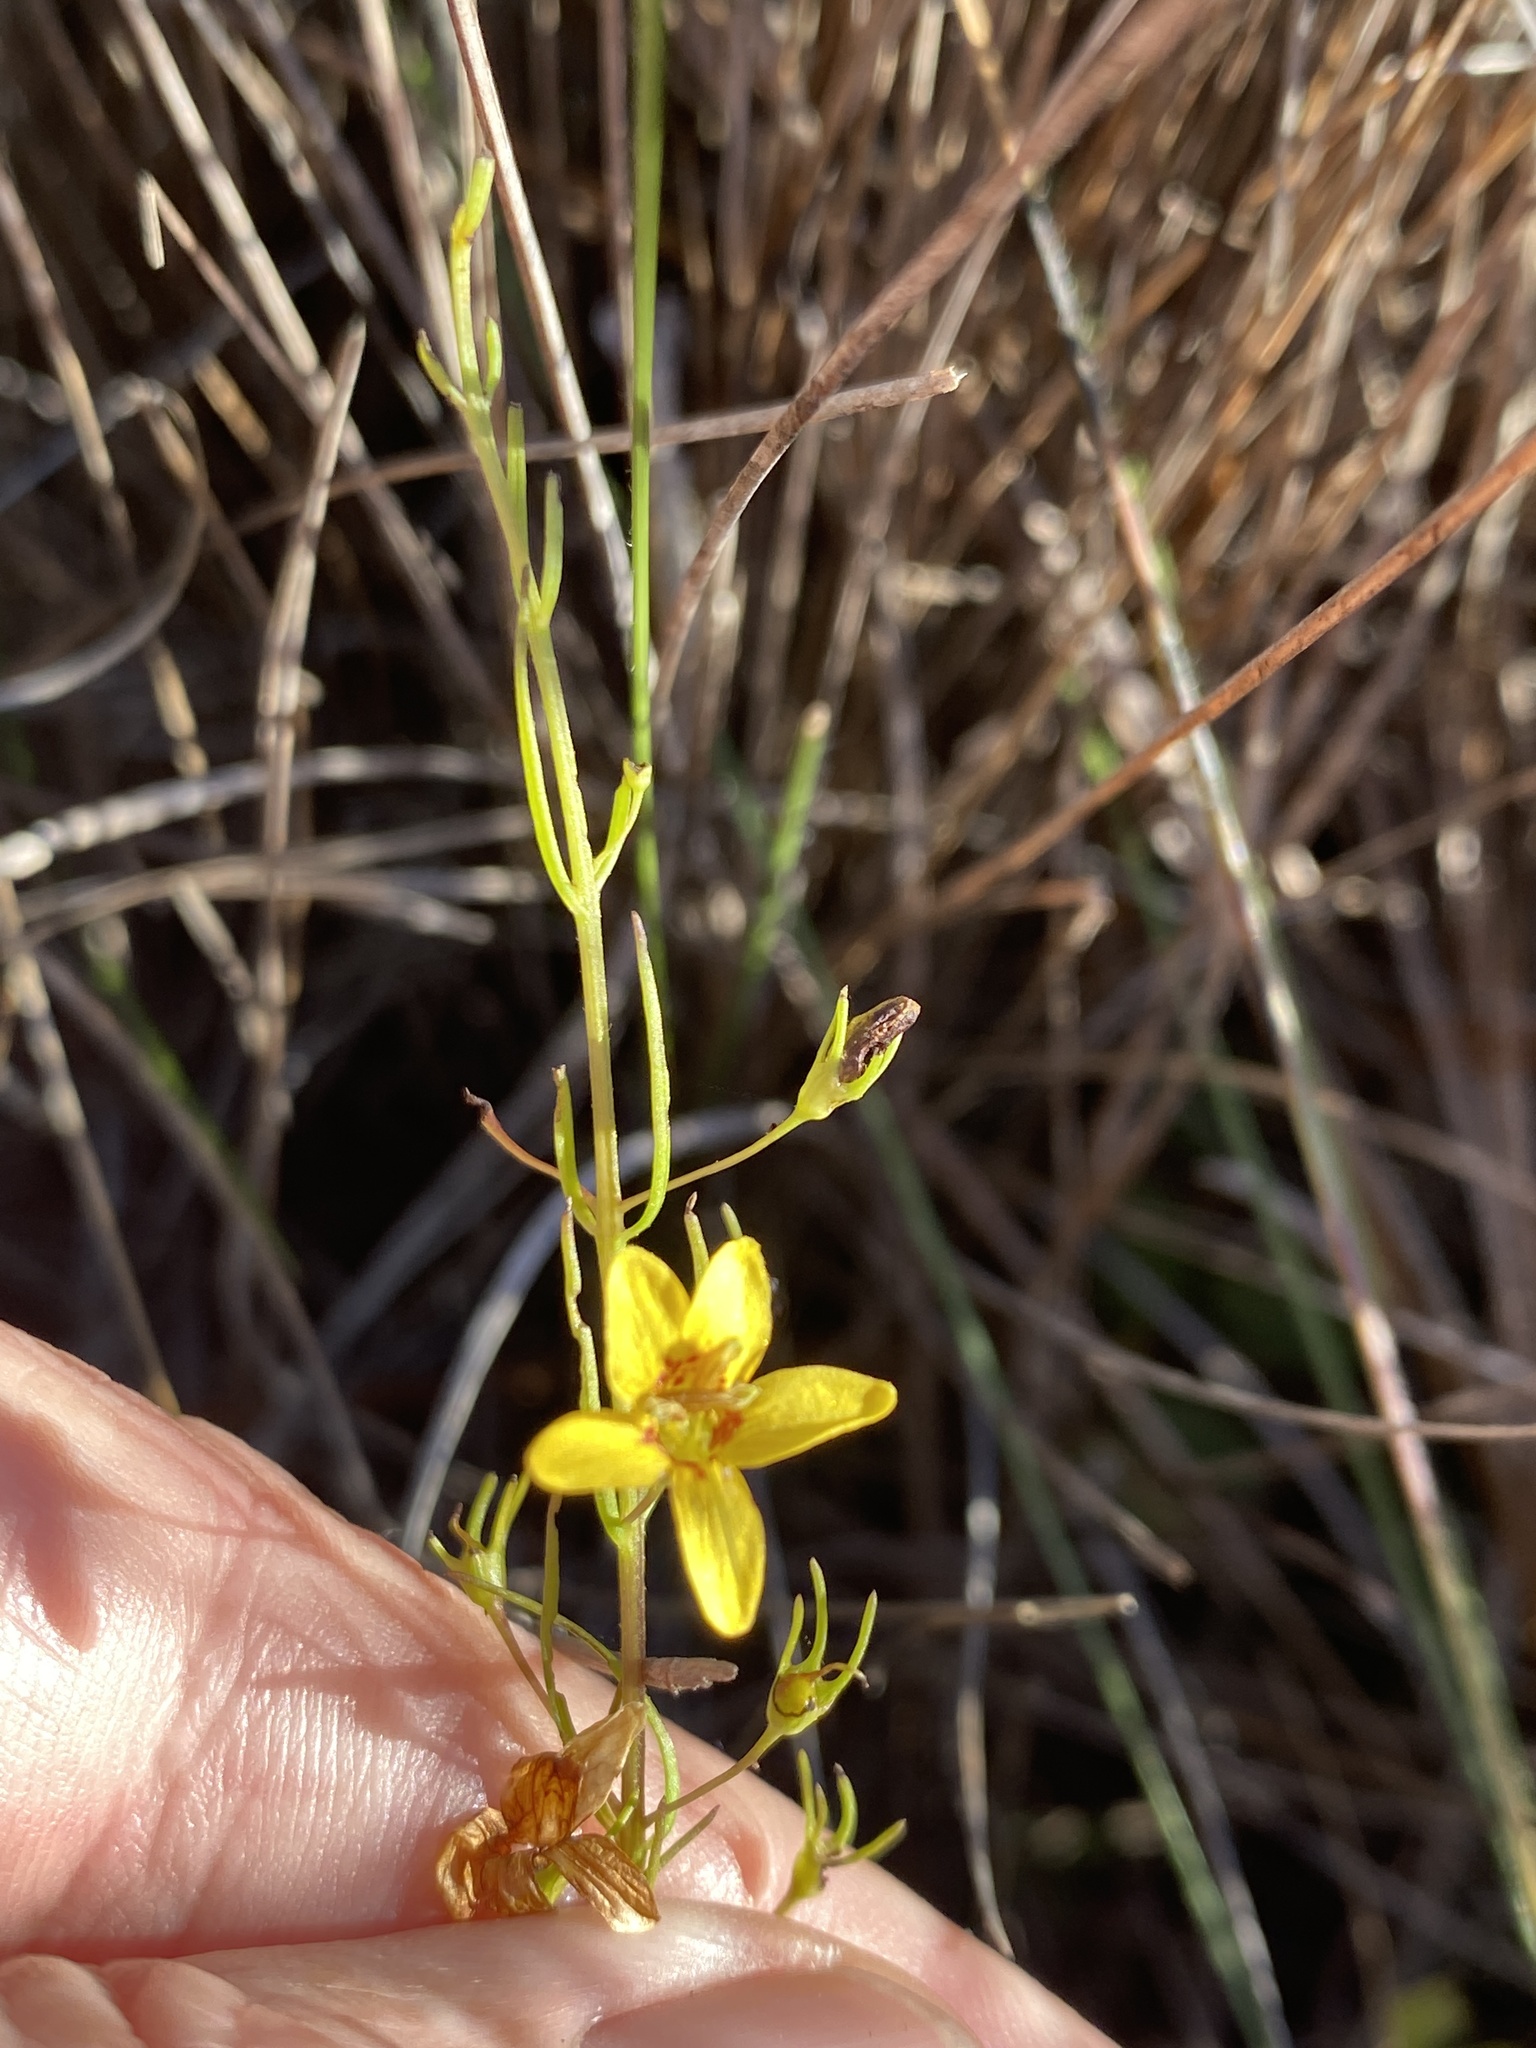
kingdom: Plantae
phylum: Tracheophyta
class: Magnoliopsida
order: Lamiales
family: Orobanchaceae
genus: Seymeria
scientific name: Seymeria cassioides
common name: Yaupon black-senna
